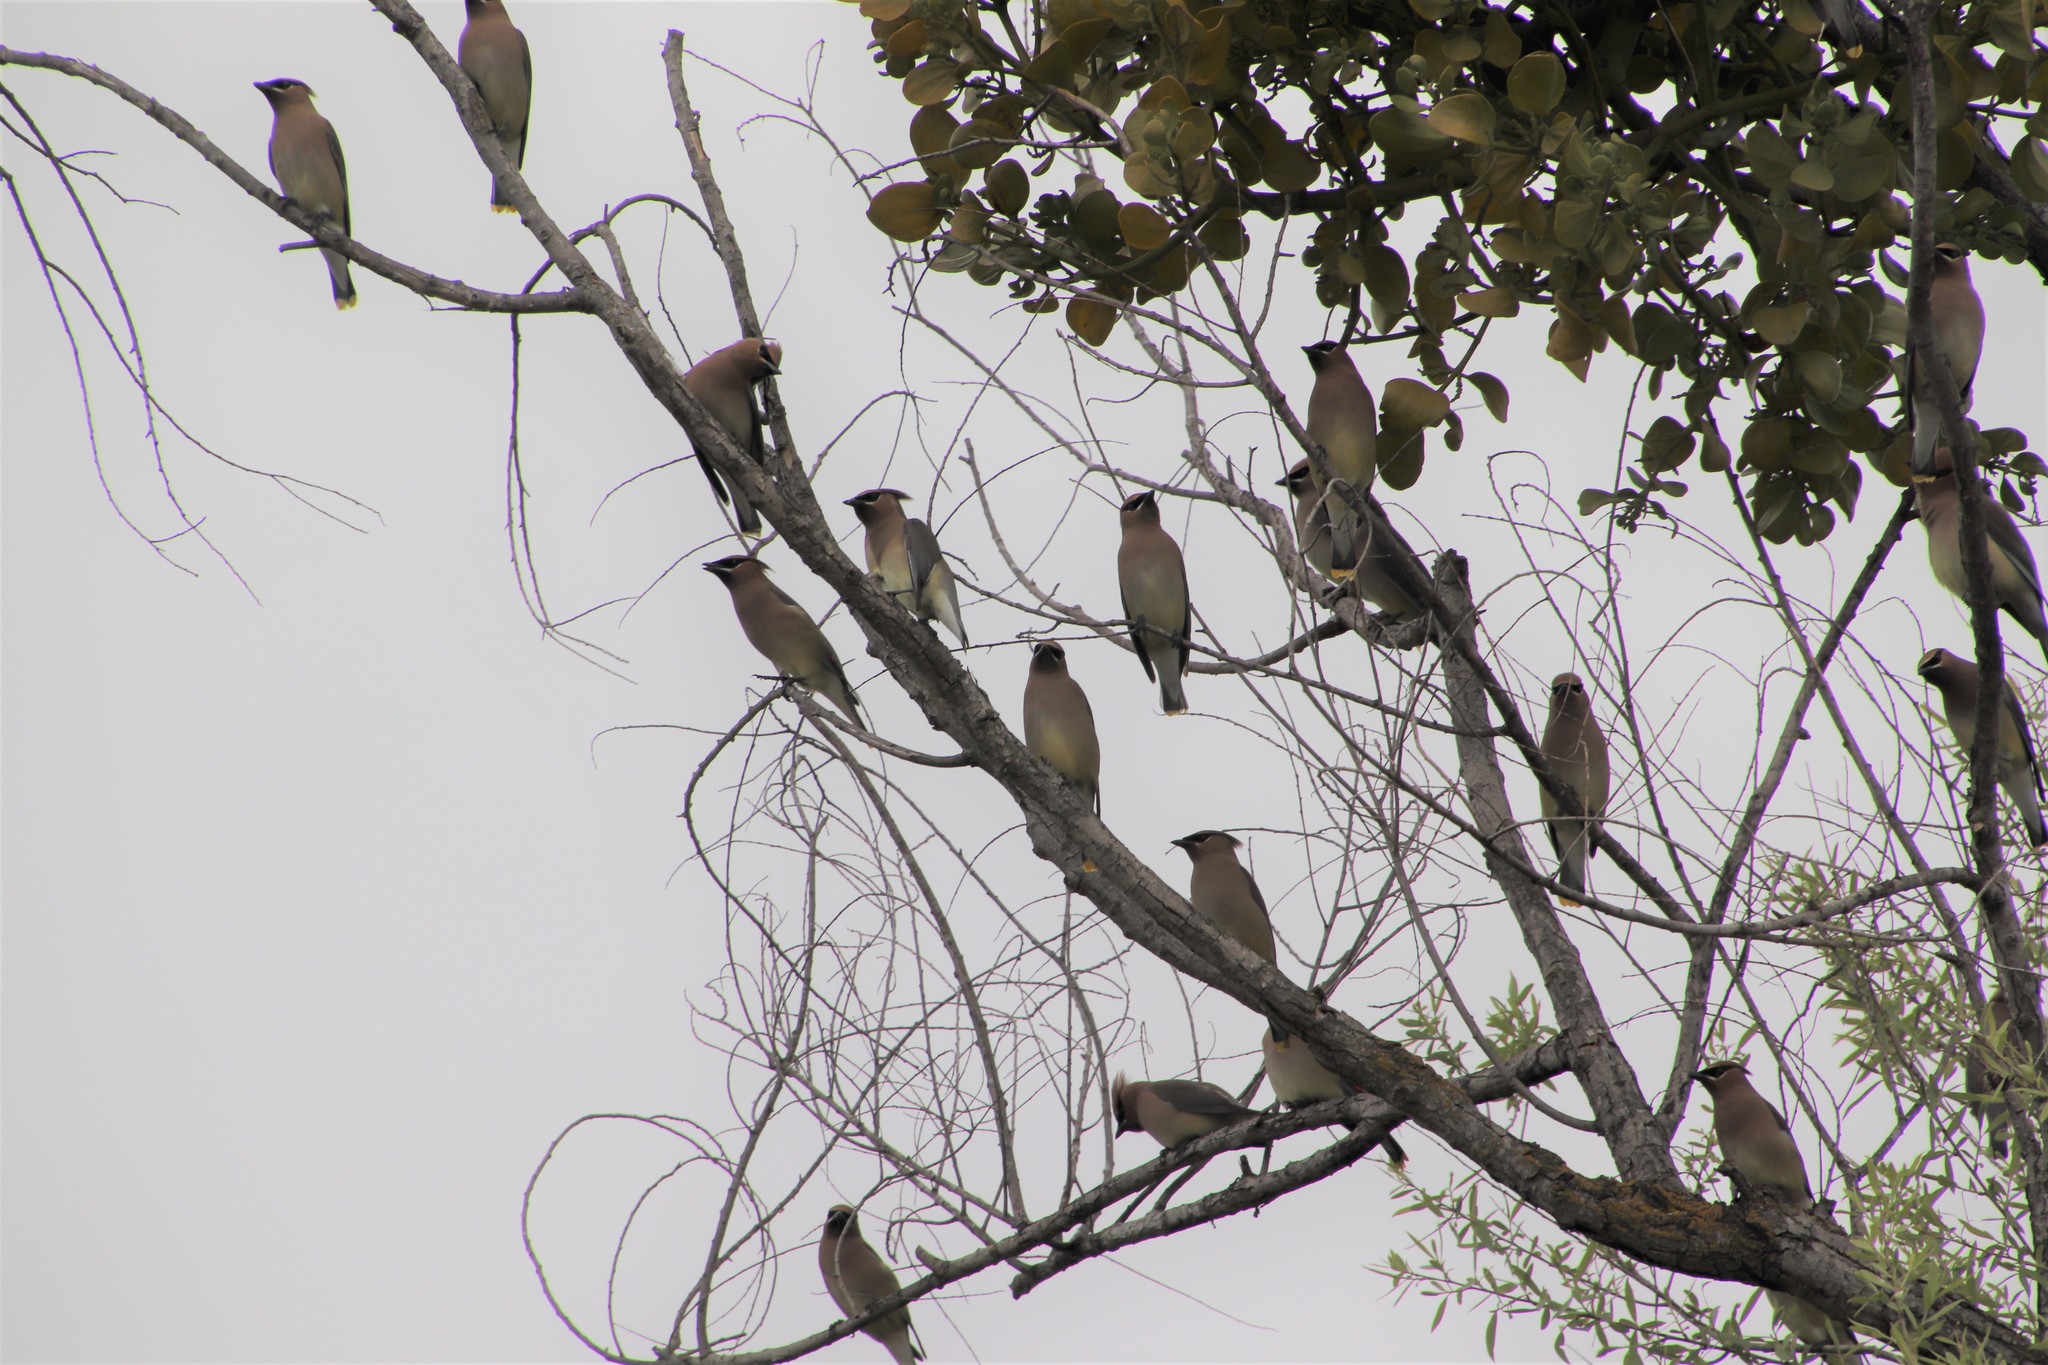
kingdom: Animalia
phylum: Chordata
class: Aves
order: Passeriformes
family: Bombycillidae
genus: Bombycilla
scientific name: Bombycilla cedrorum
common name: Cedar waxwing
